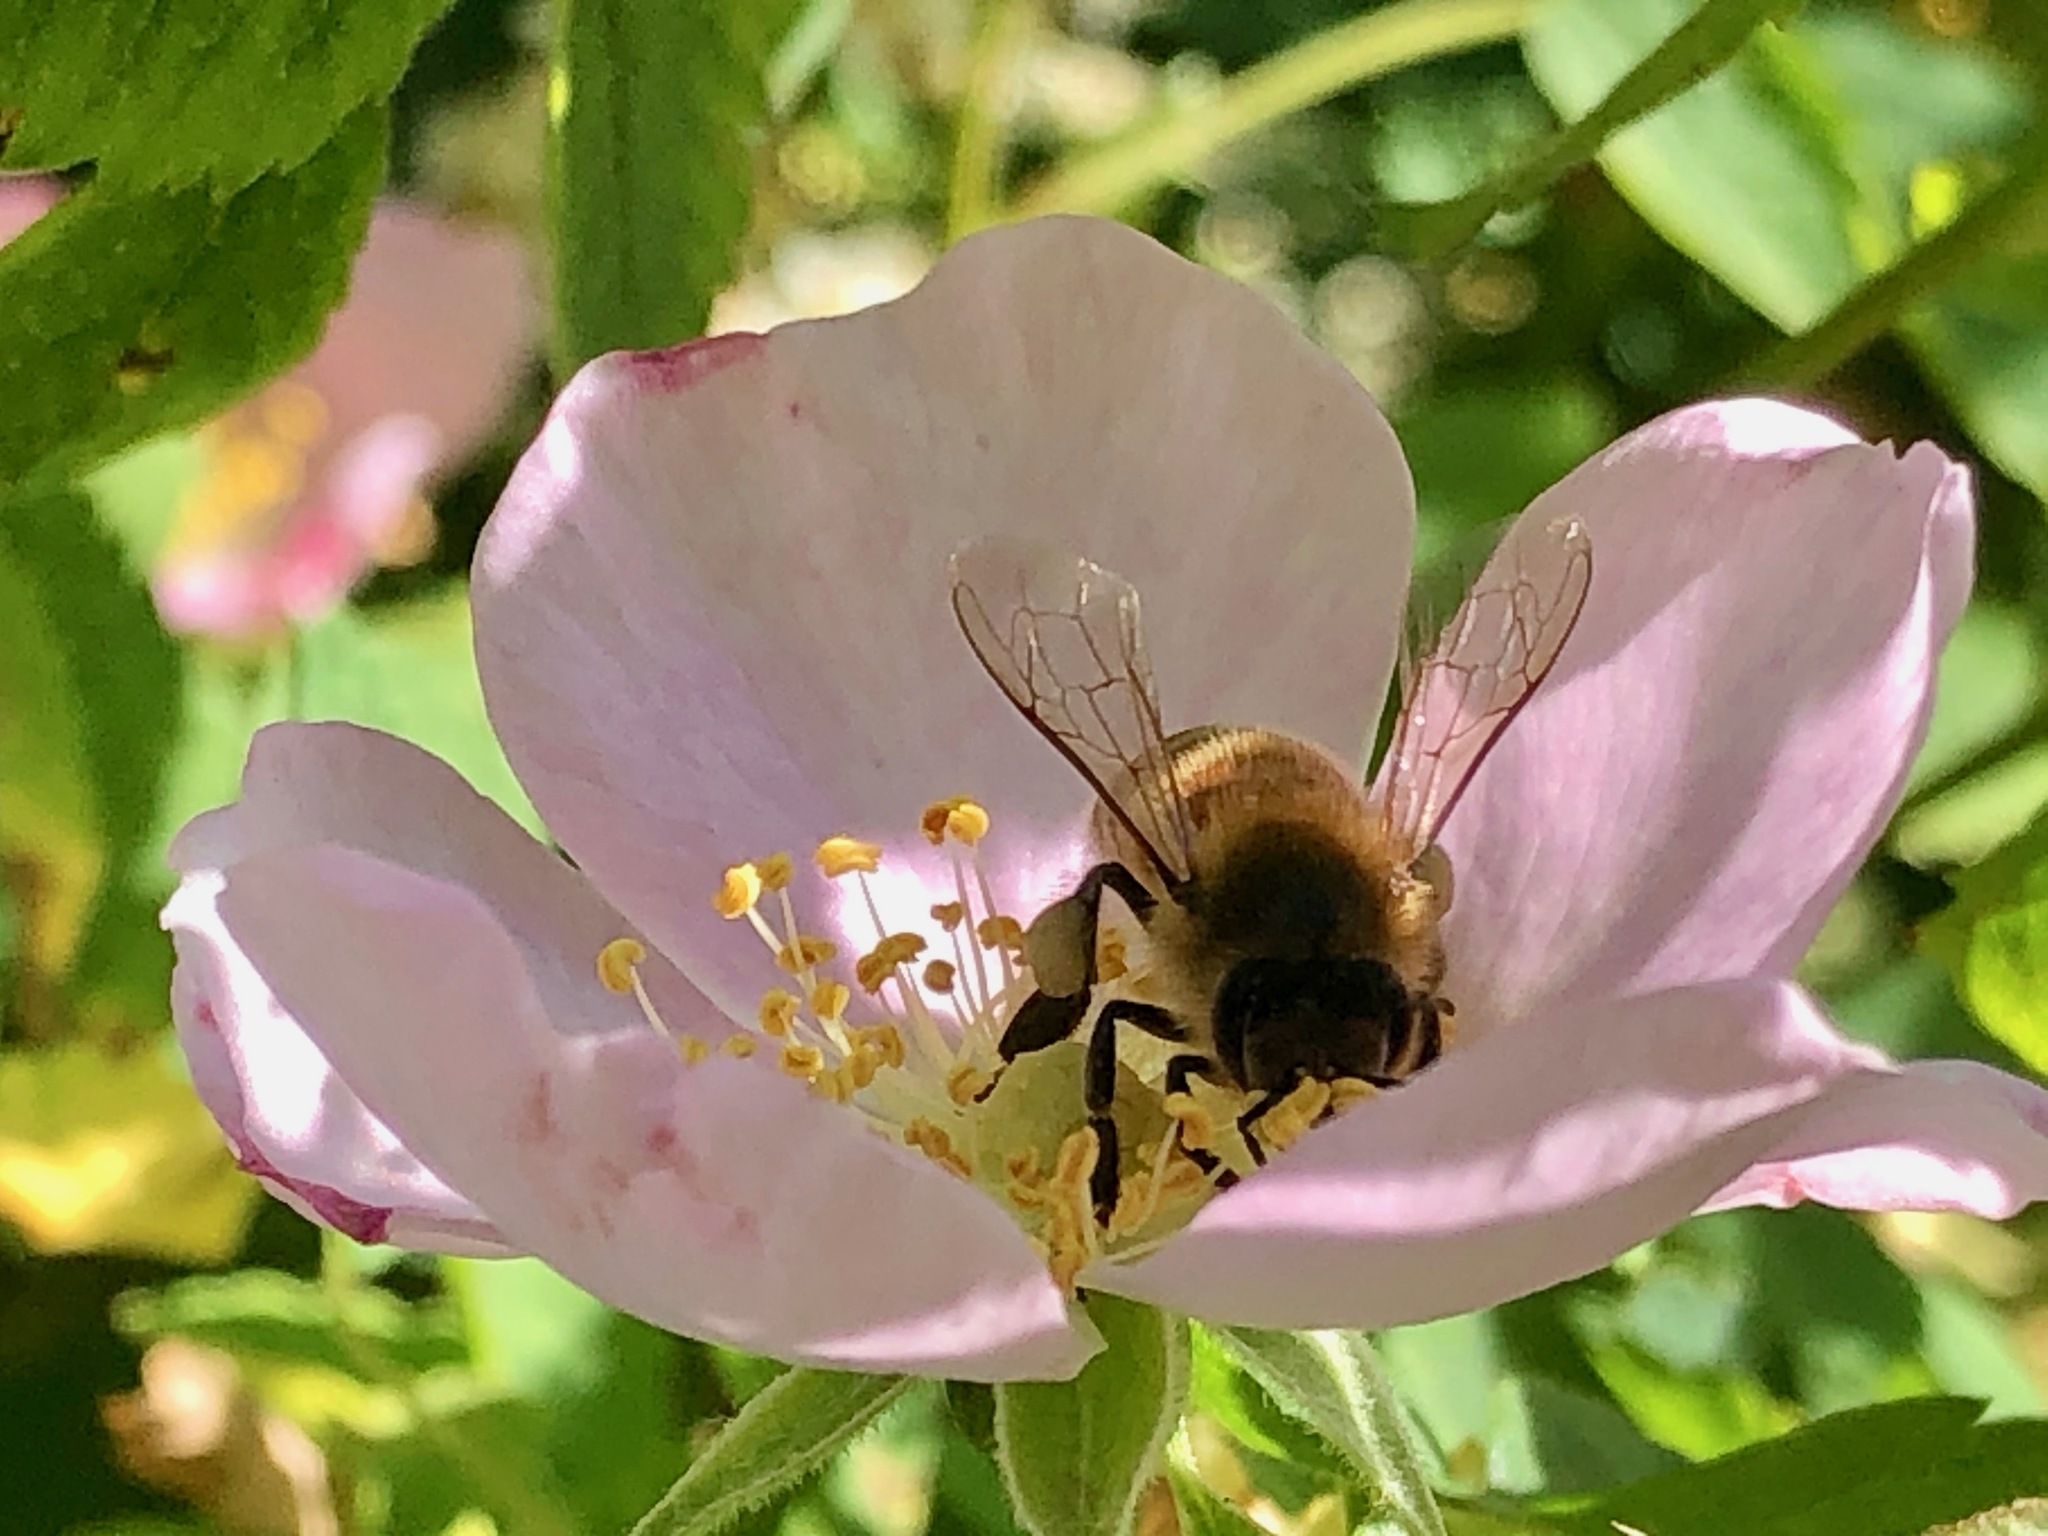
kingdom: Animalia
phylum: Arthropoda
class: Insecta
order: Hymenoptera
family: Apidae
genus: Apis
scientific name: Apis mellifera
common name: Honey bee
